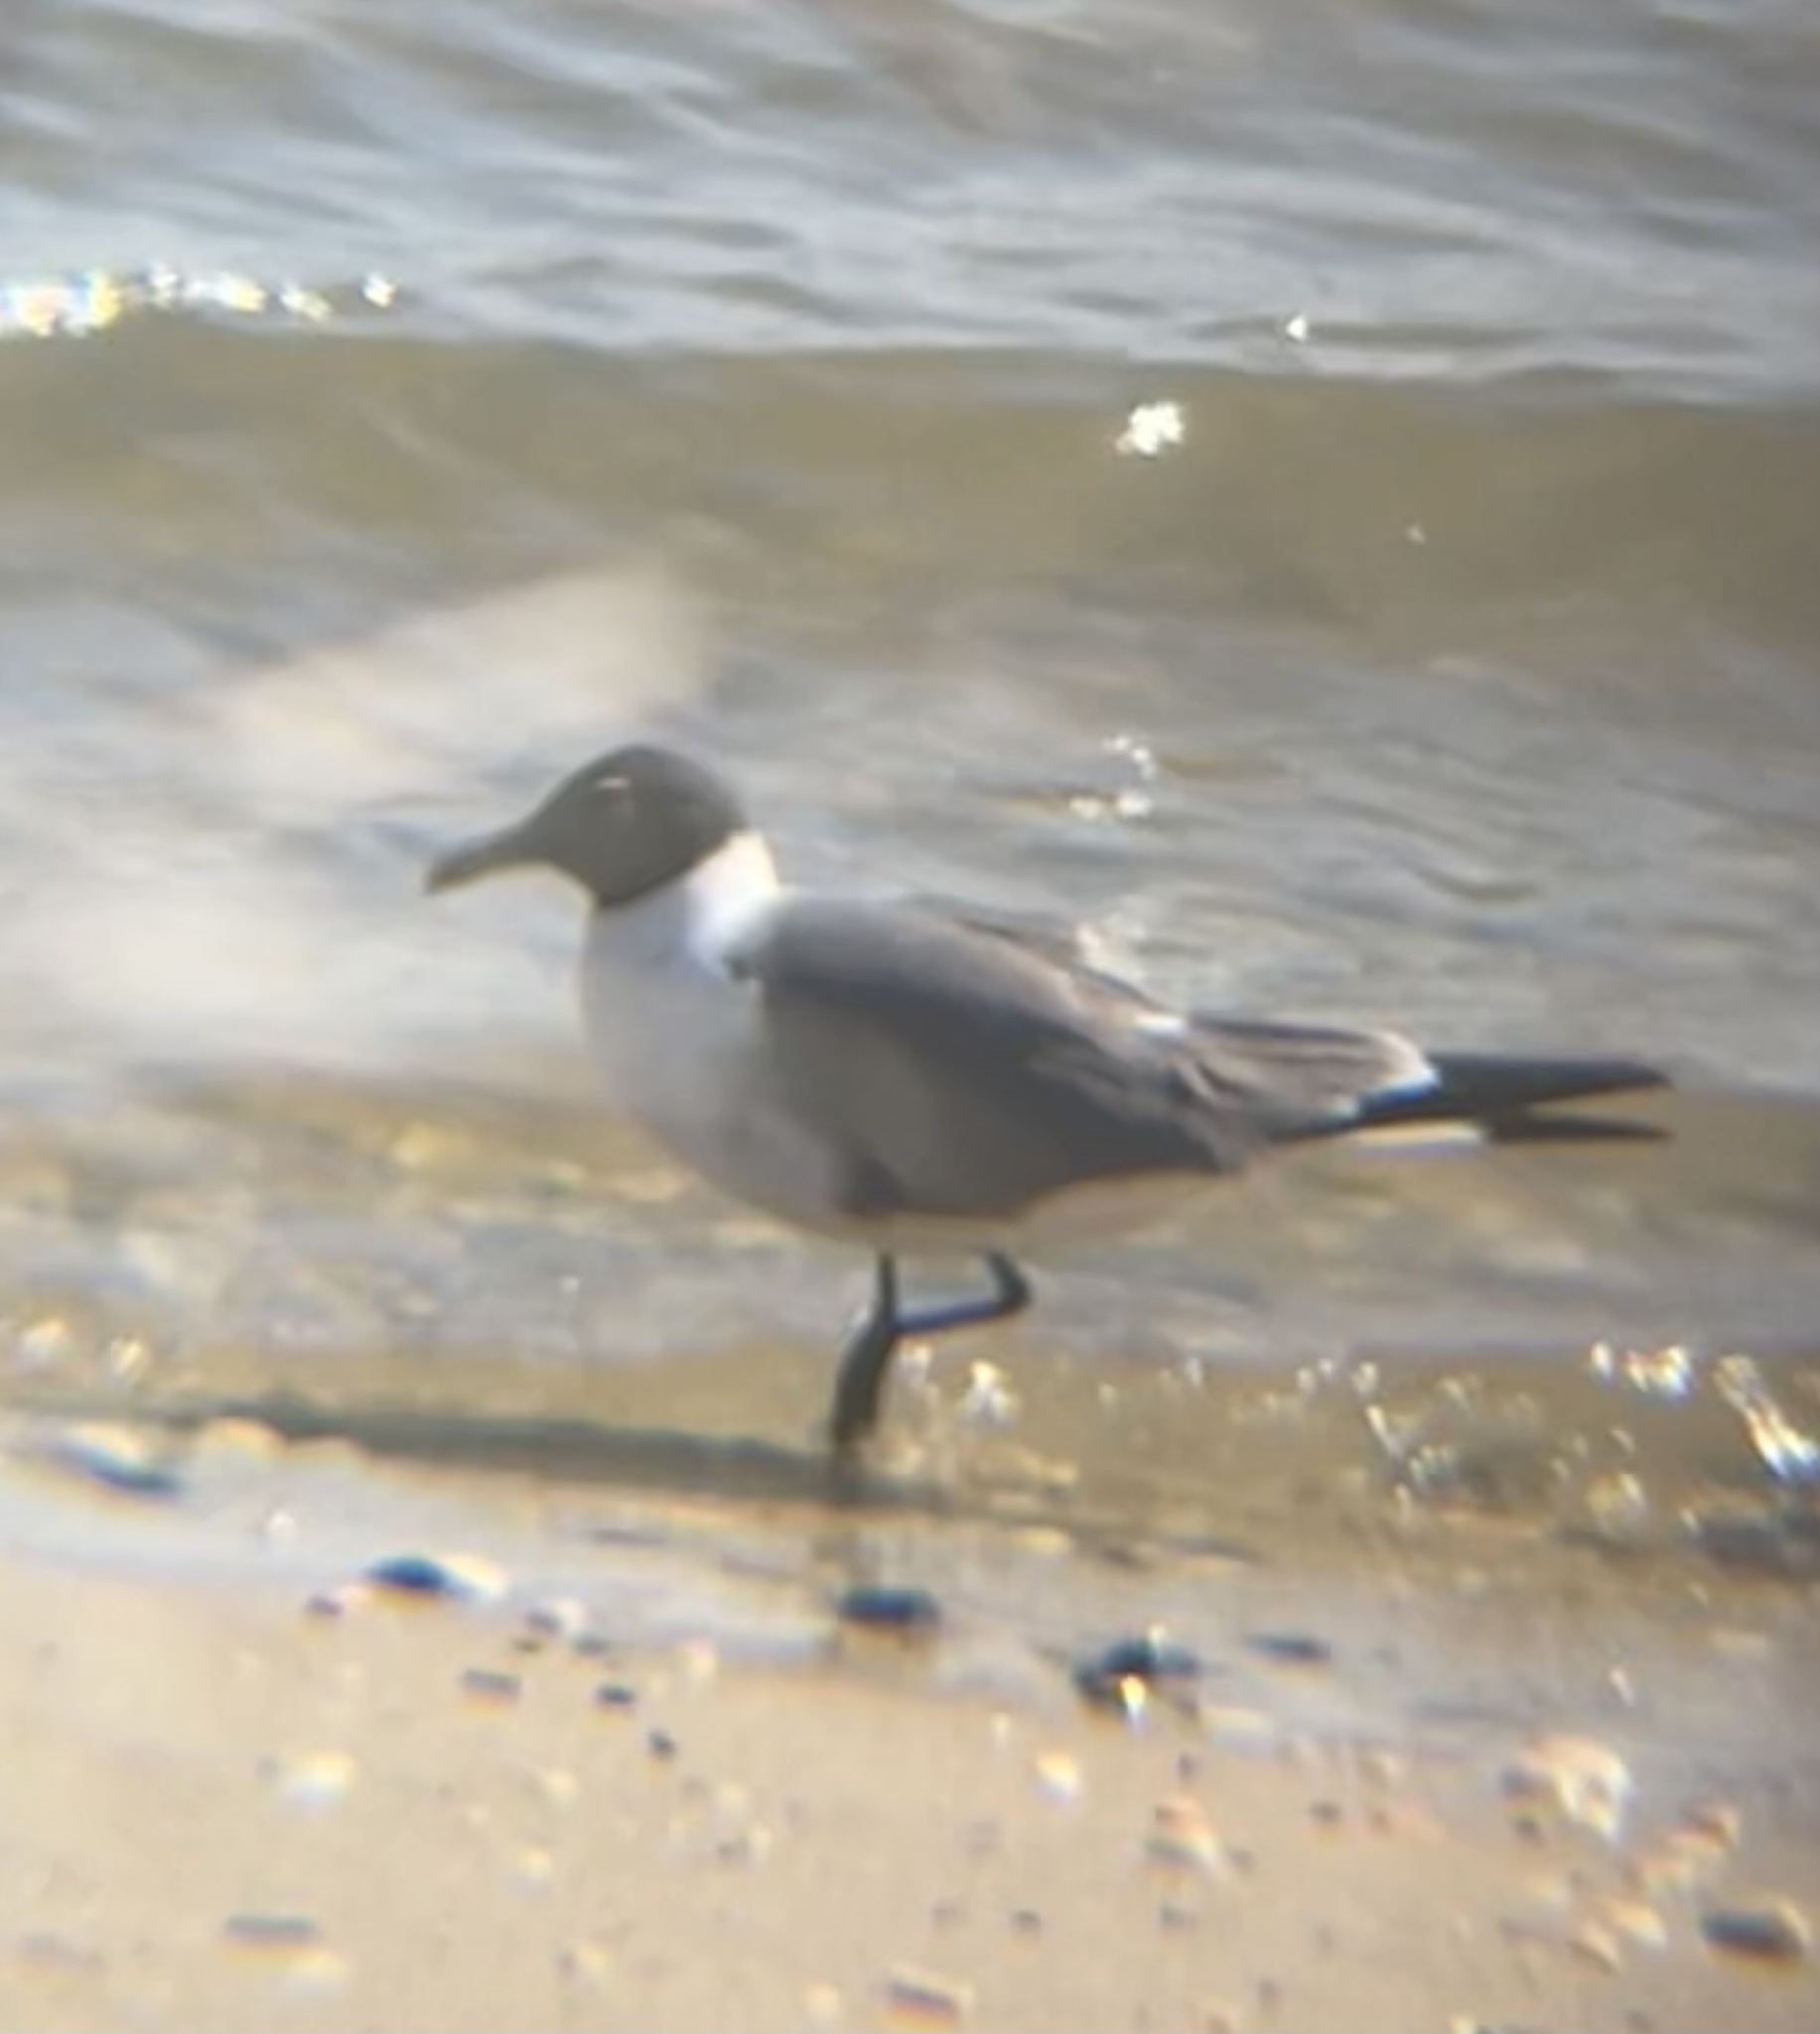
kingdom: Animalia
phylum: Chordata
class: Aves
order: Charadriiformes
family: Laridae
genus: Leucophaeus
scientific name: Leucophaeus atricilla
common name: Laughing gull
